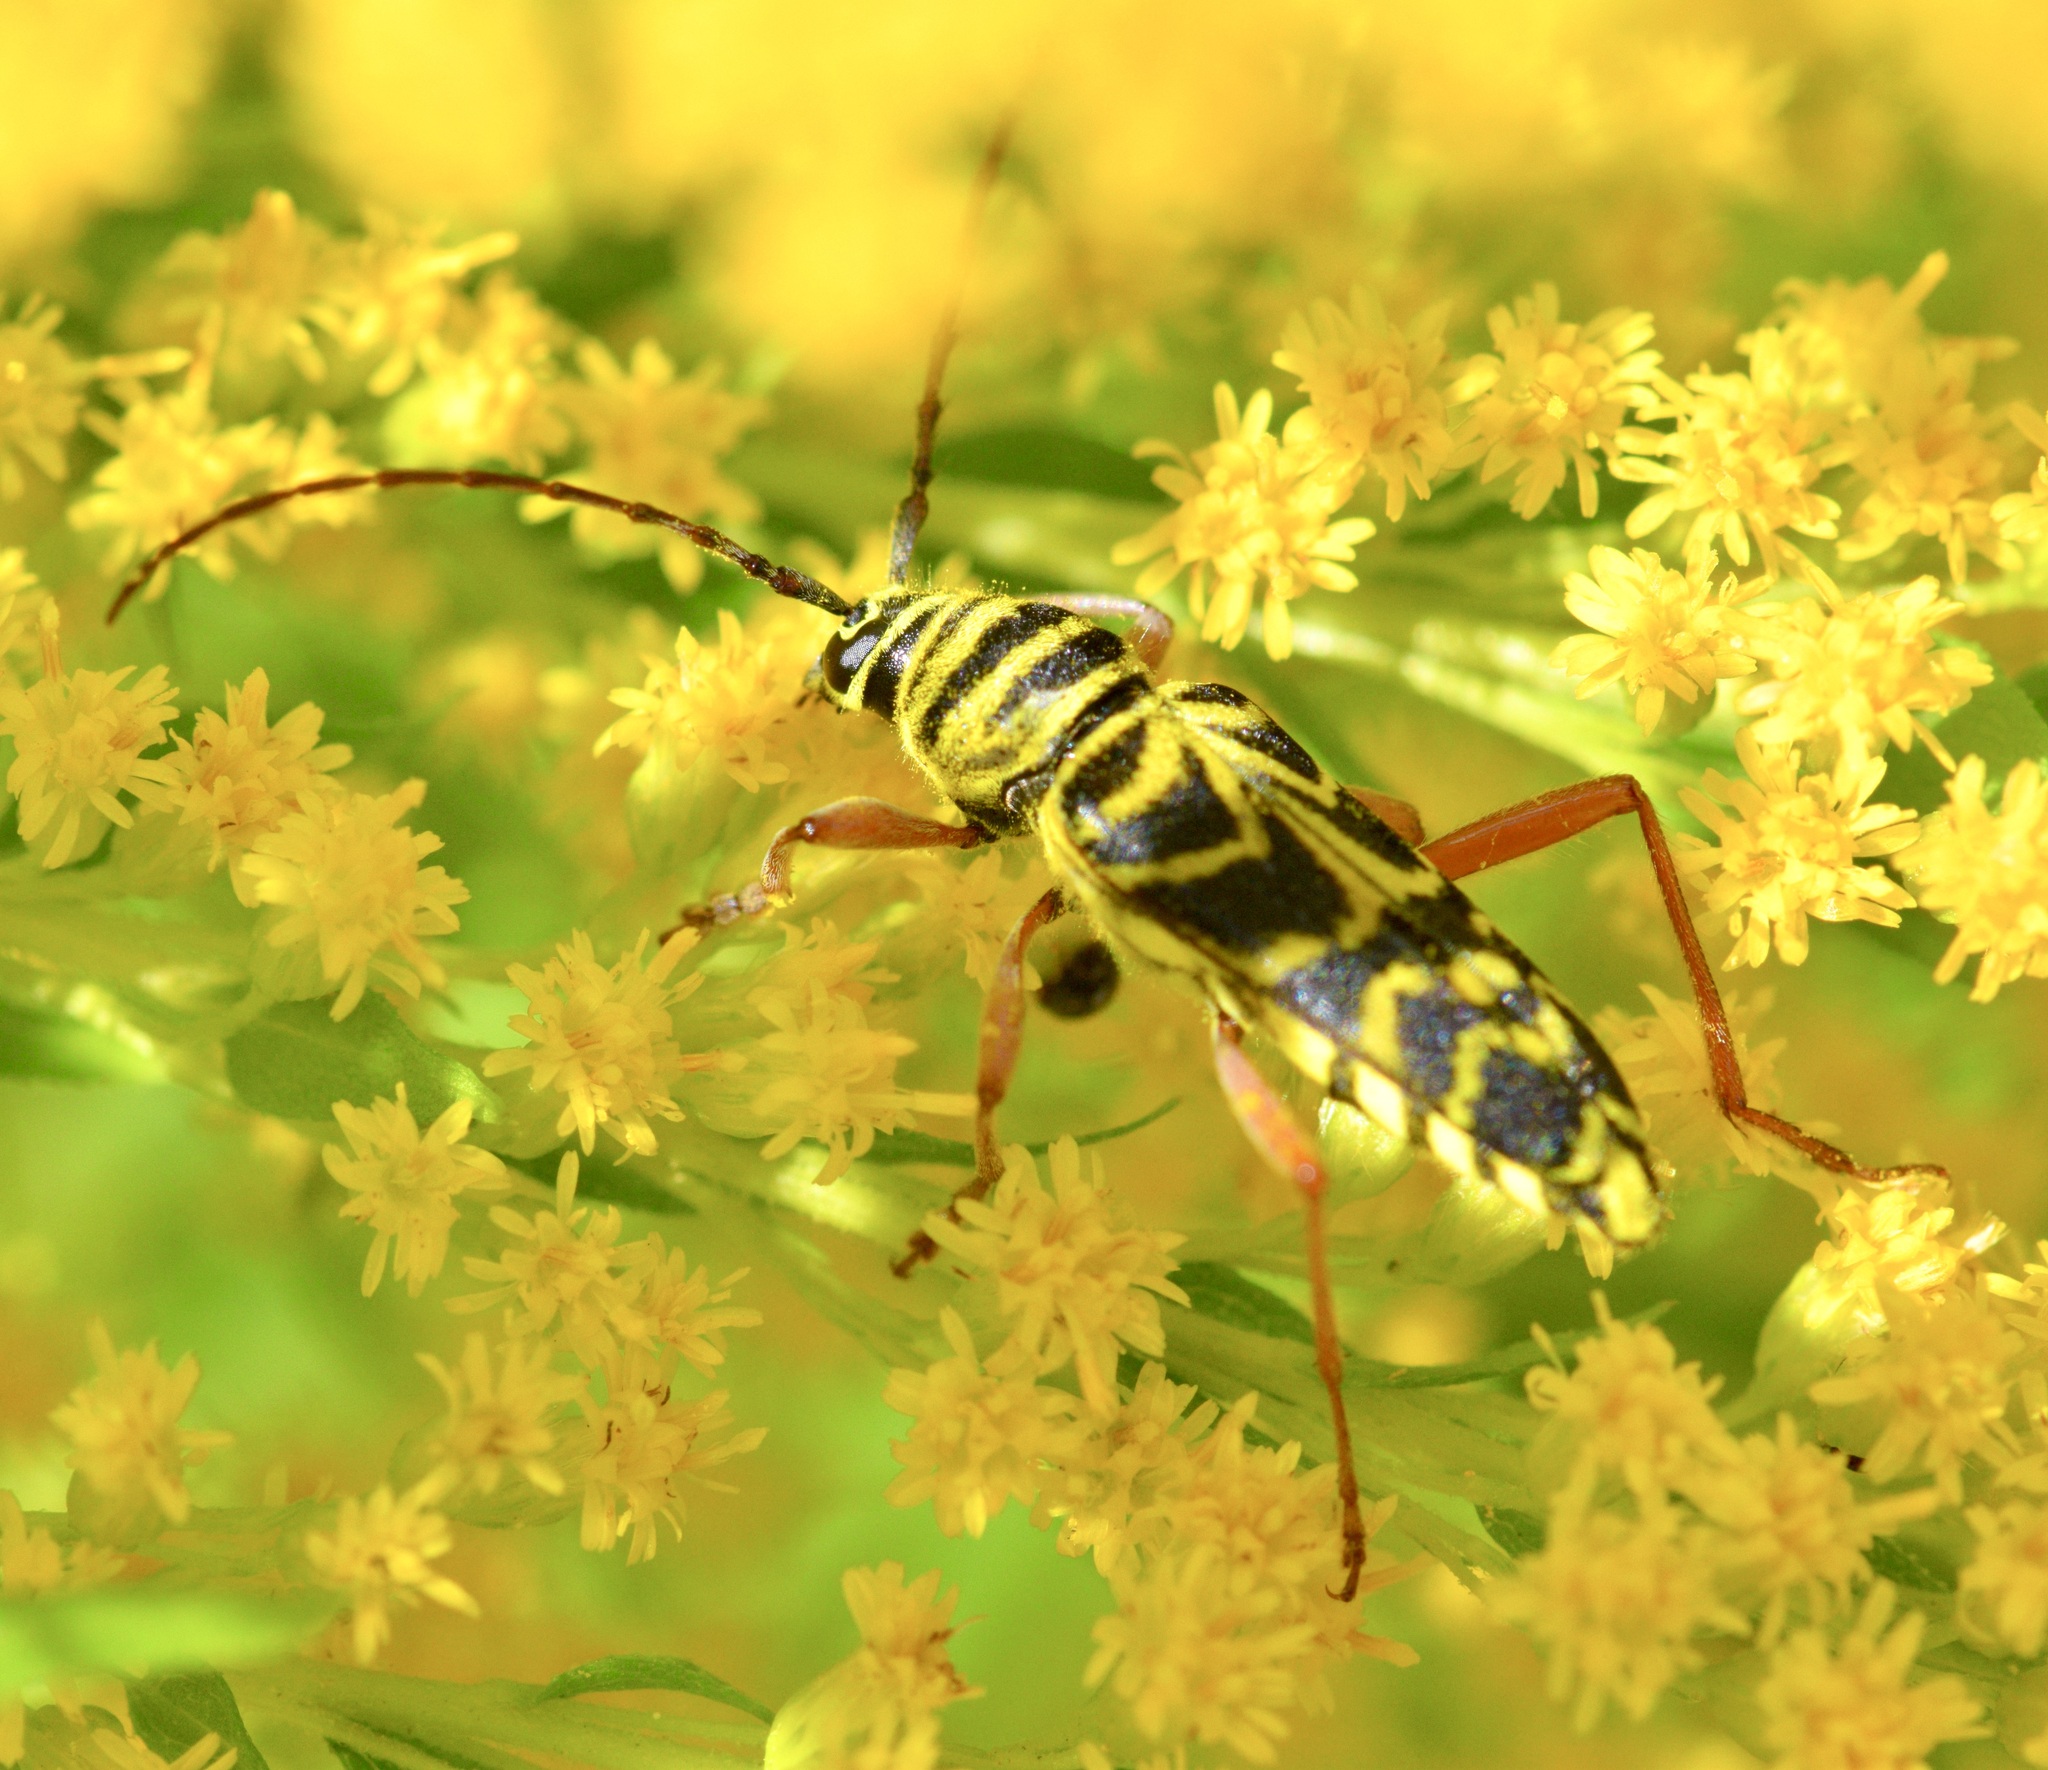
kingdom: Animalia
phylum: Arthropoda
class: Insecta
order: Coleoptera
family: Cerambycidae
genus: Megacyllene
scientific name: Megacyllene robiniae
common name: Locust borer
